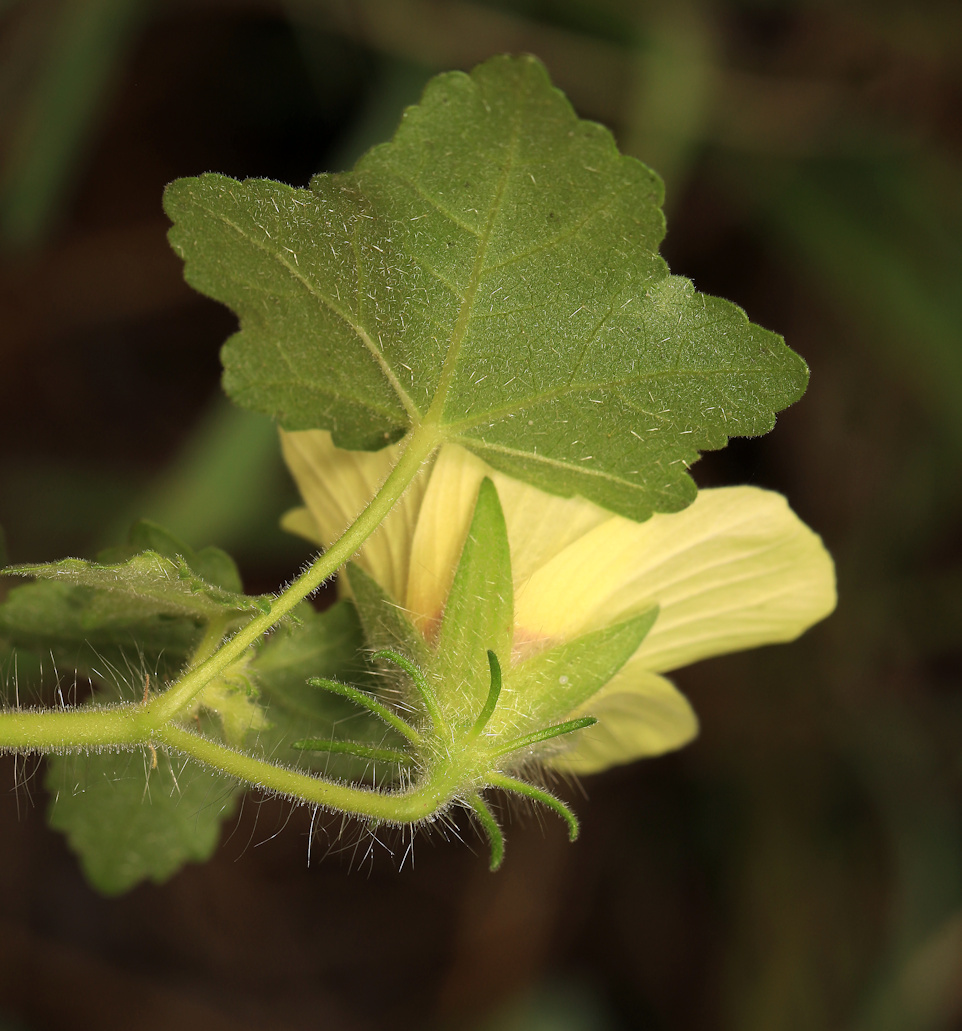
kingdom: Plantae
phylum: Tracheophyta
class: Magnoliopsida
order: Malvales
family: Malvaceae
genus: Hibiscus
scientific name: Hibiscus schinzii
